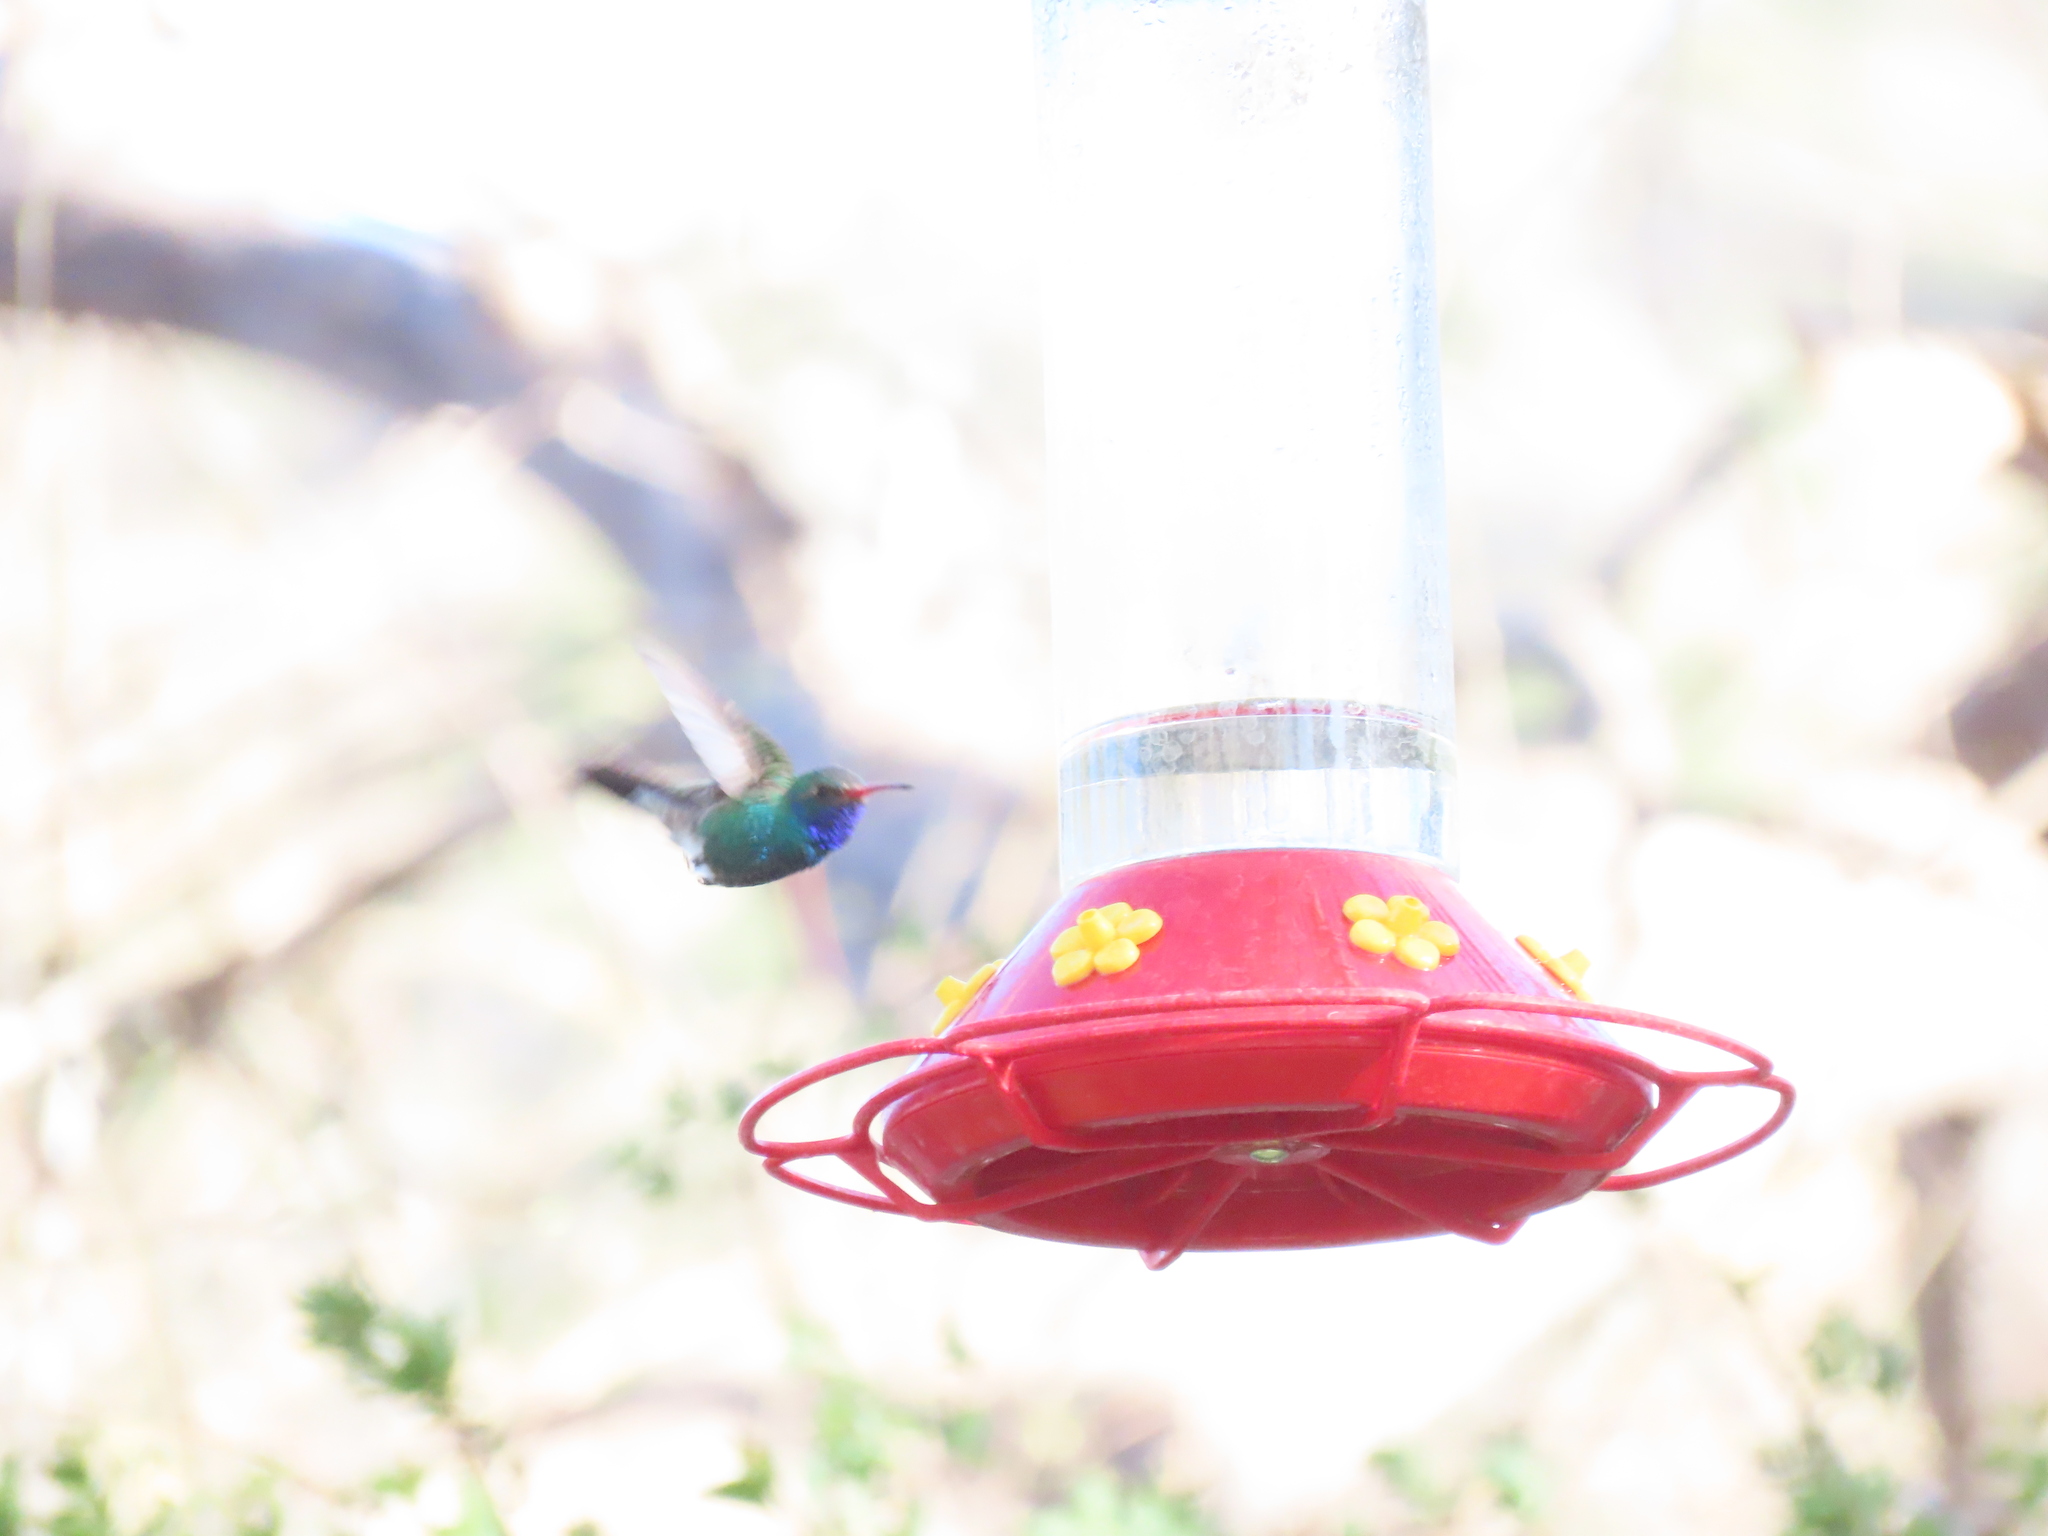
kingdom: Animalia
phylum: Chordata
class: Aves
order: Apodiformes
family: Trochilidae
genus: Cynanthus
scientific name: Cynanthus latirostris
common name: Broad-billed hummingbird
